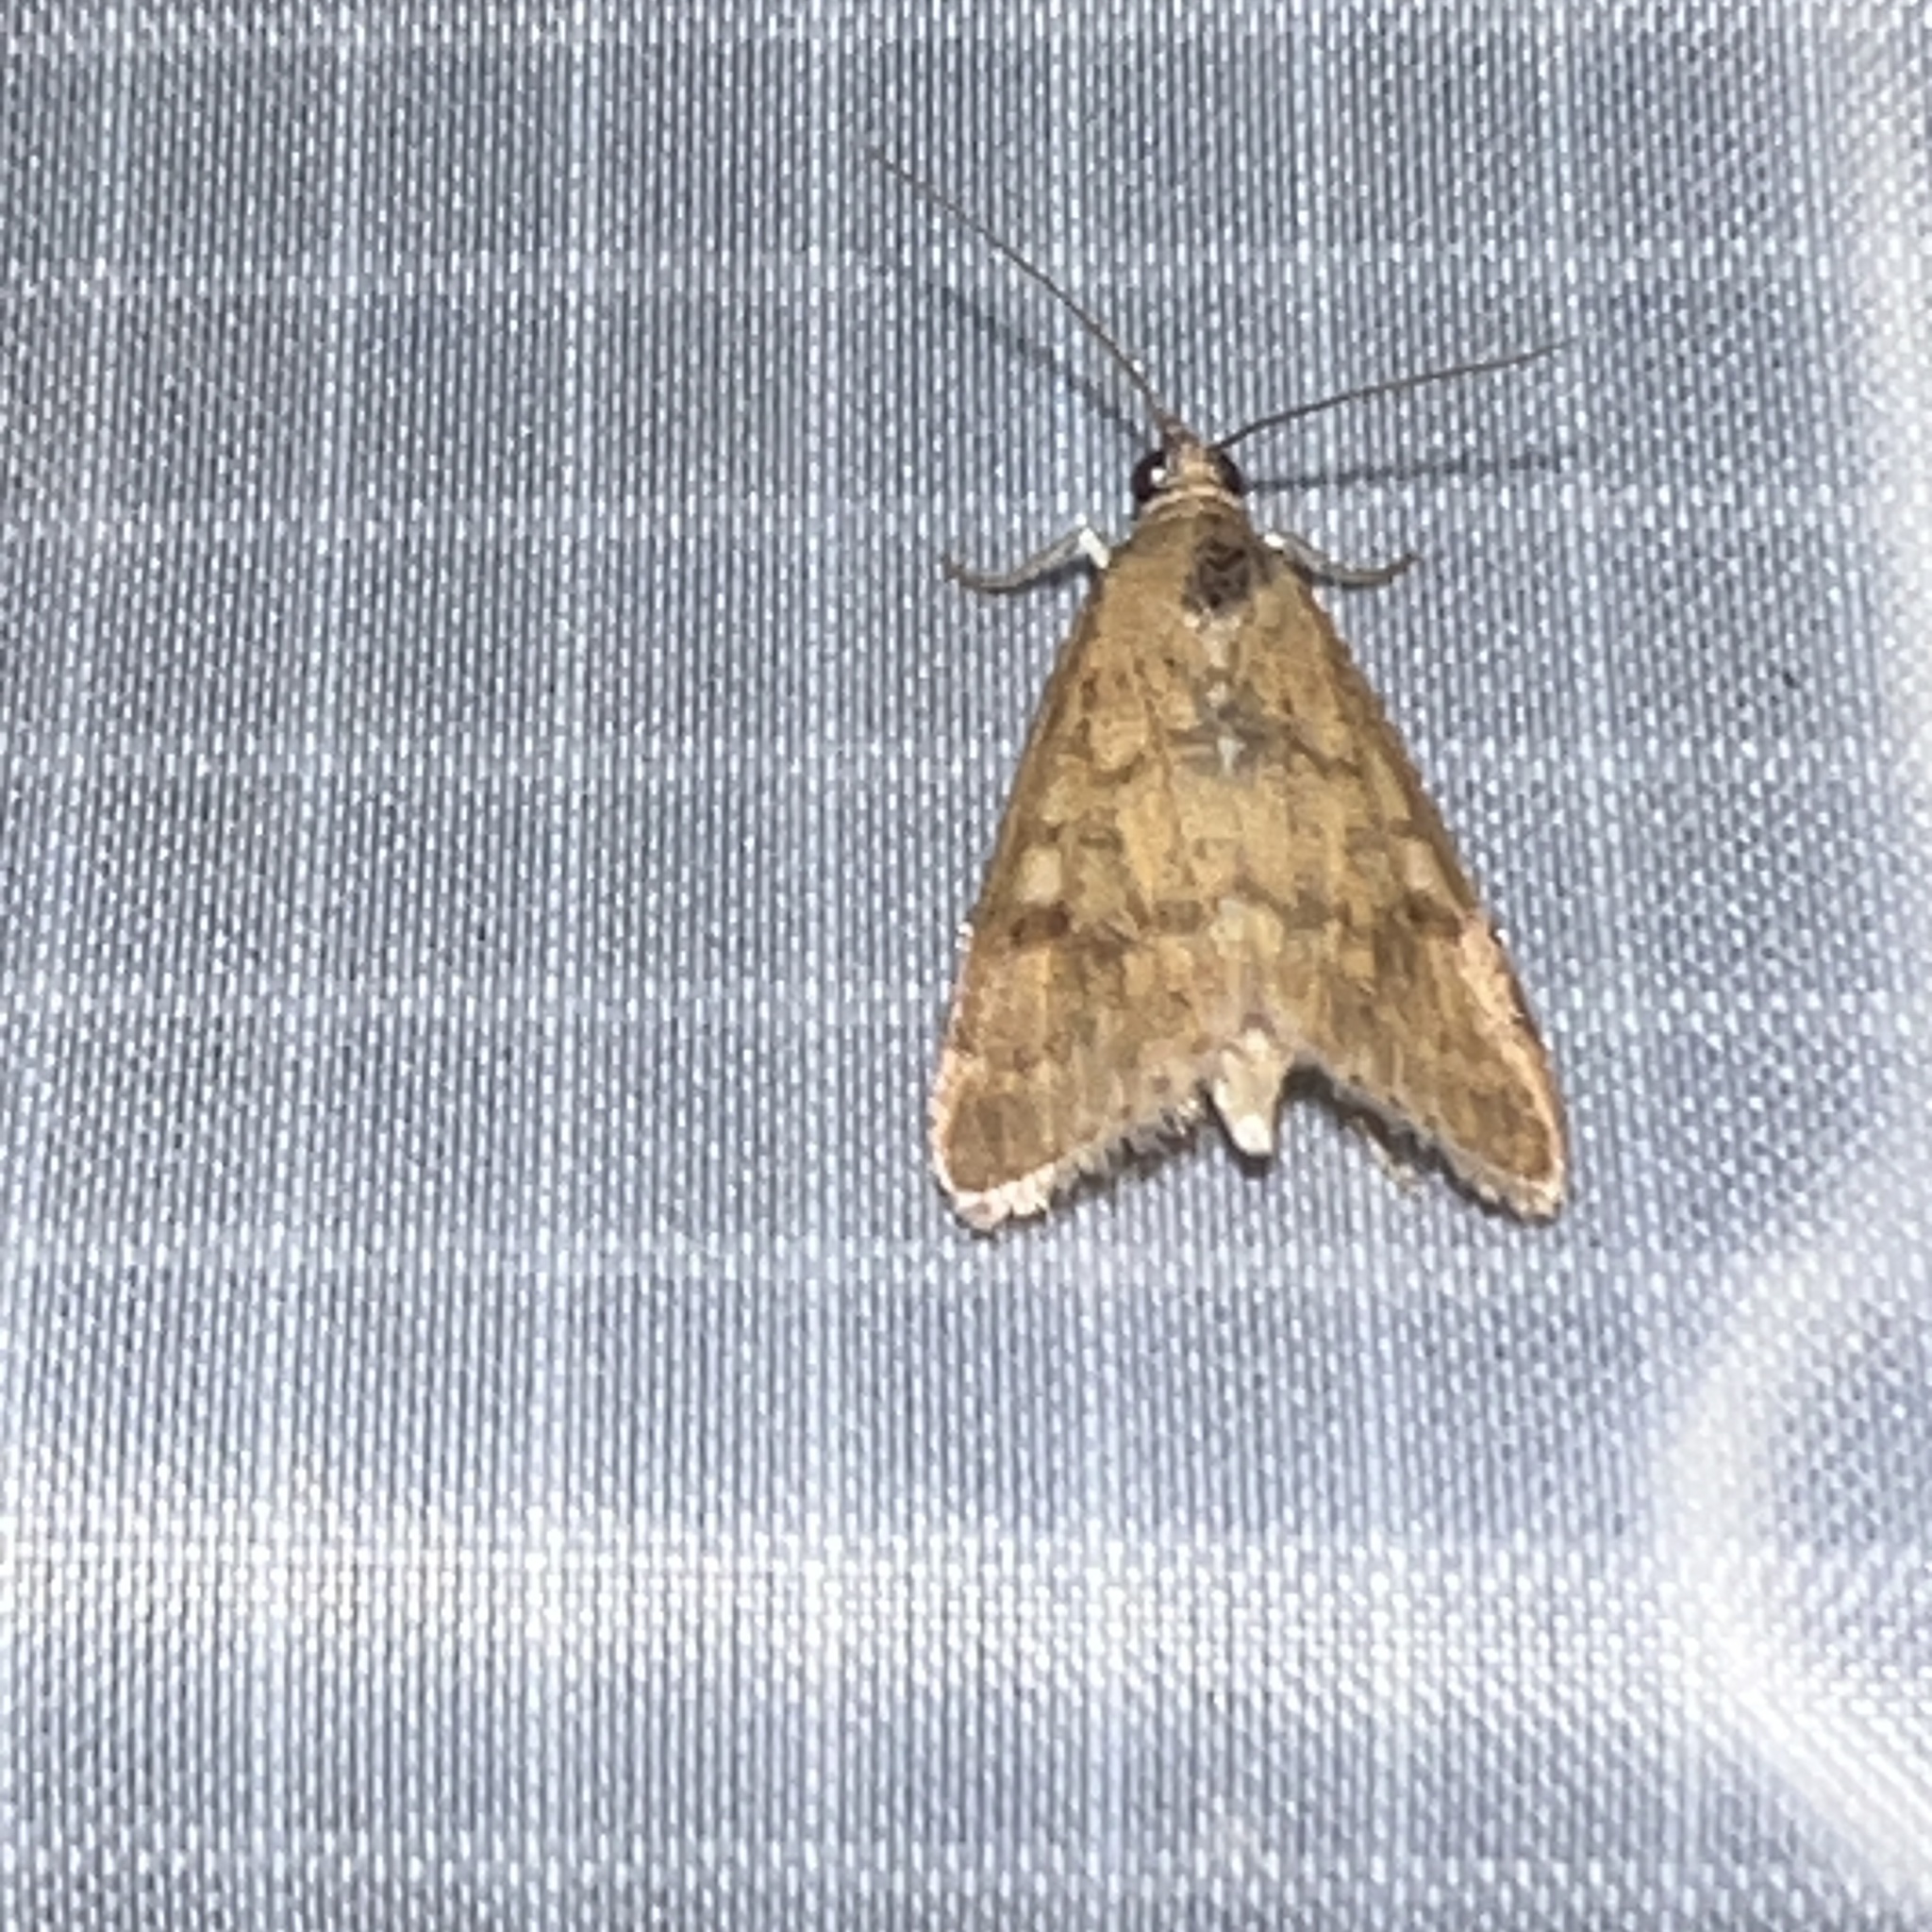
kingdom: Animalia
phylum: Arthropoda
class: Insecta
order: Lepidoptera
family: Crambidae
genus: Achyra
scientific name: Achyra rantalis
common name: Garden webworm
